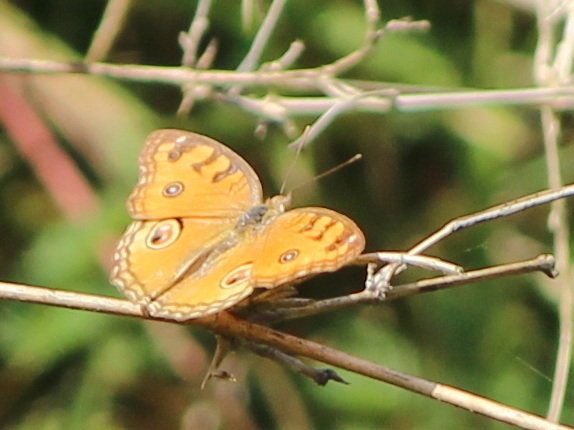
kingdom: Animalia
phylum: Arthropoda
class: Insecta
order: Lepidoptera
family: Nymphalidae
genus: Junonia
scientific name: Junonia almana
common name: Peacock pansy
